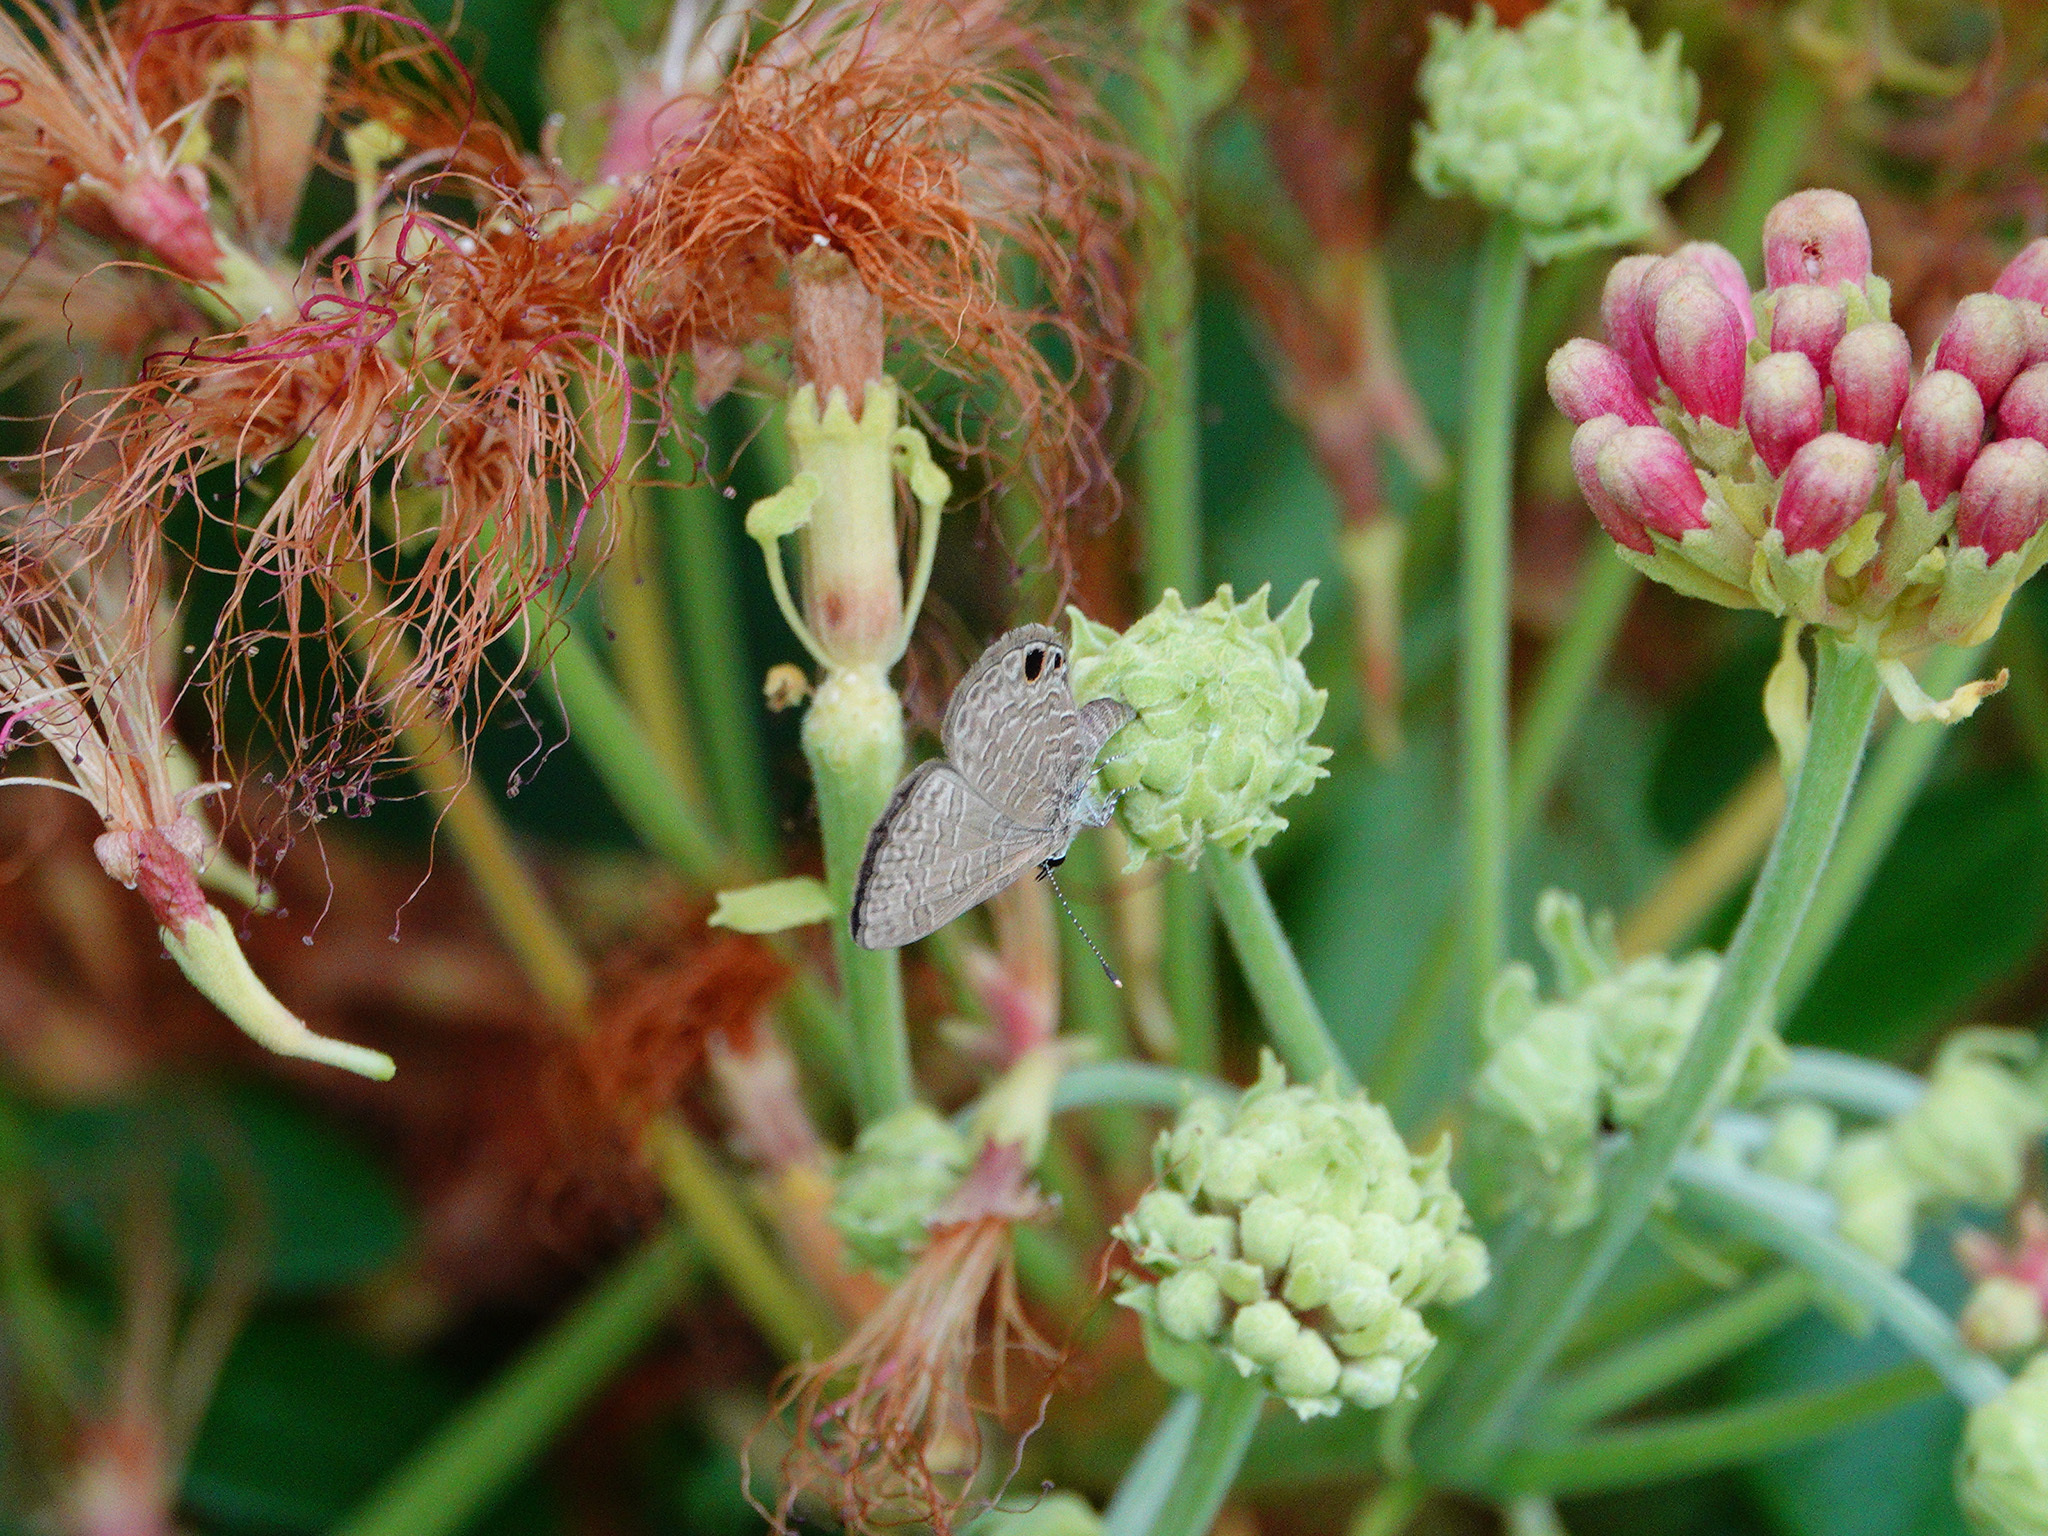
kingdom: Animalia
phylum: Arthropoda
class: Insecta
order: Lepidoptera
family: Lycaenidae
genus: Prosotas
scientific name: Prosotas dubiosa
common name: Tailless lineblue
